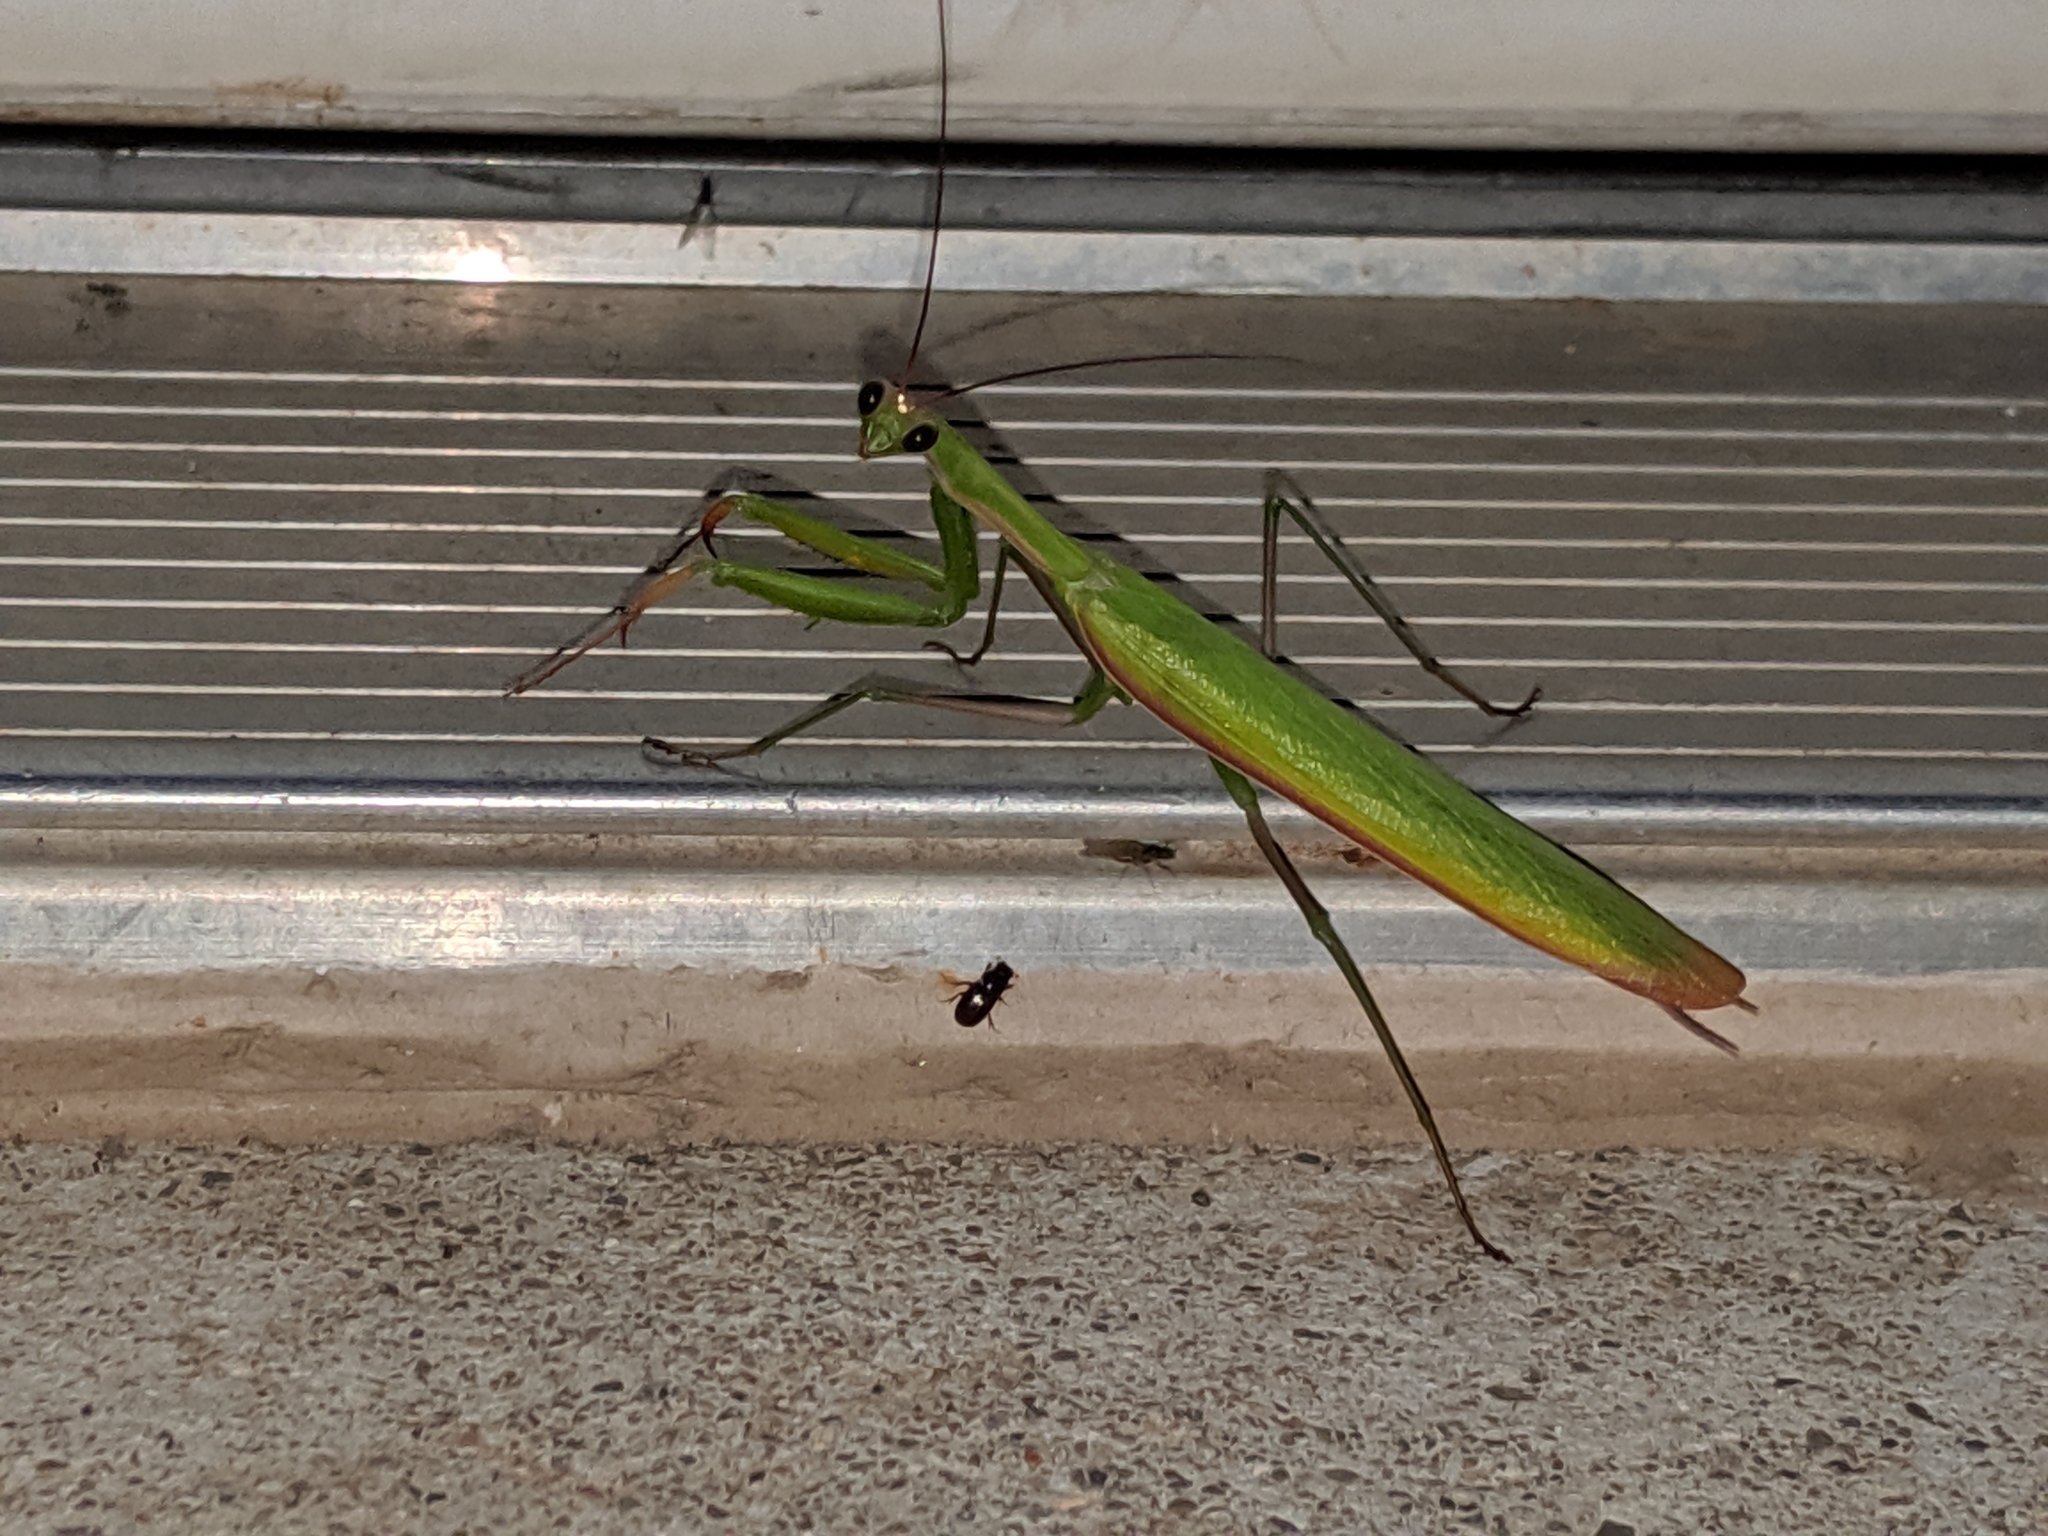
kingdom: Animalia
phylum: Arthropoda
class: Insecta
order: Mantodea
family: Mantidae
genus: Mantis
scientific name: Mantis religiosa
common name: Praying mantis
